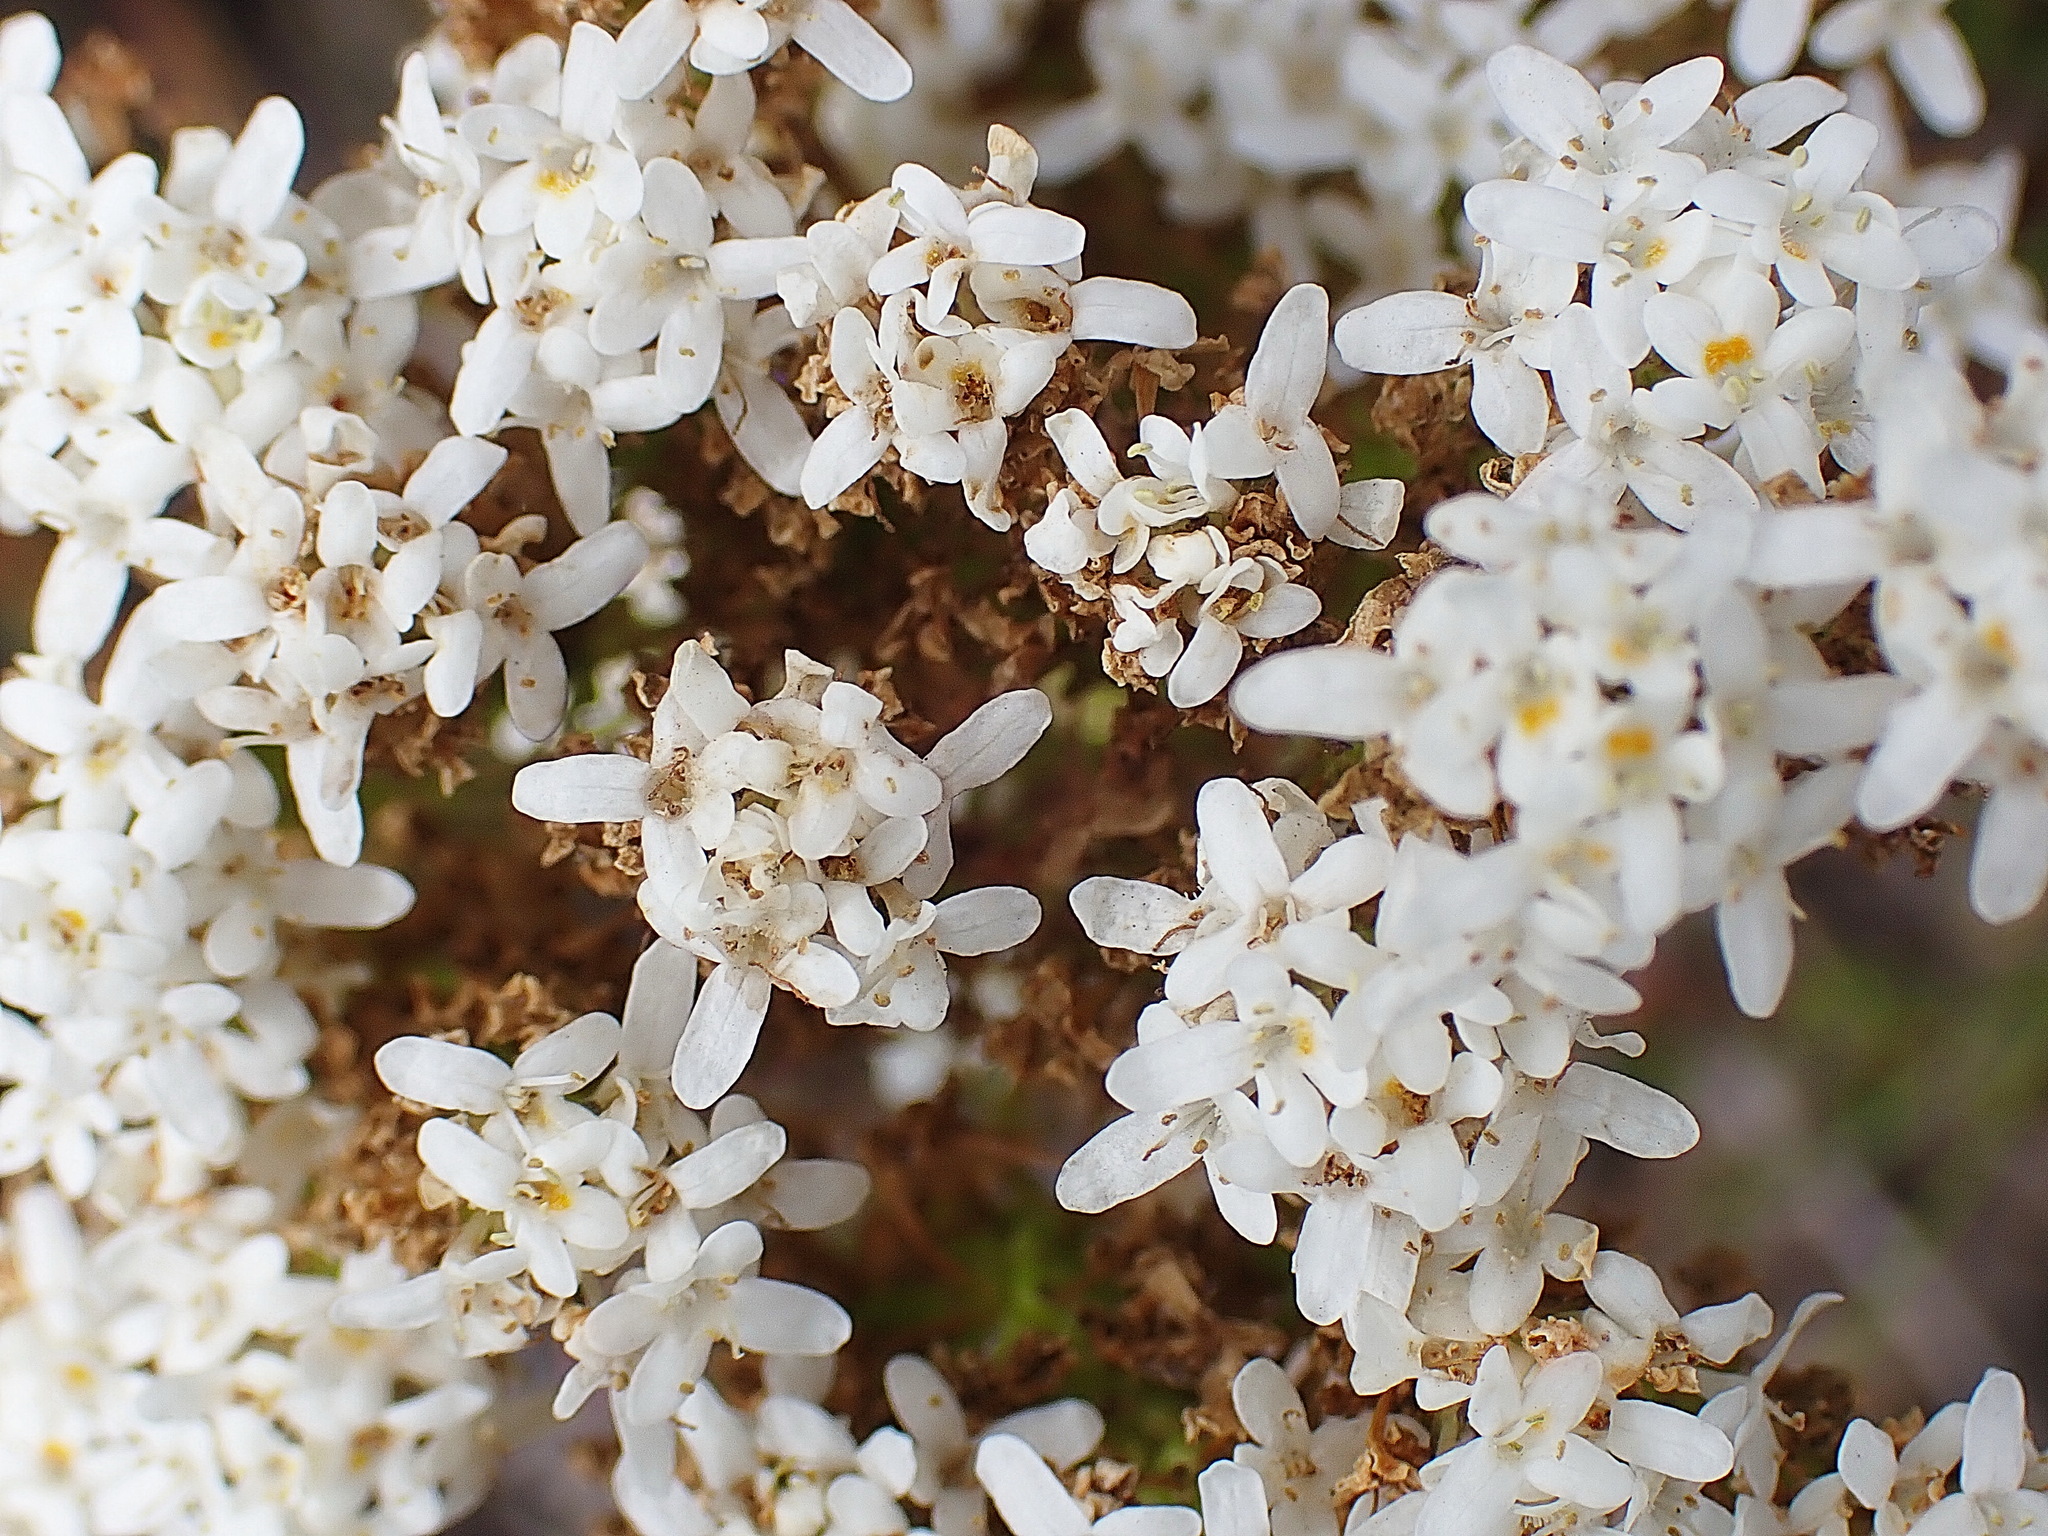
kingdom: Plantae
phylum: Tracheophyta
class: Magnoliopsida
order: Lamiales
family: Scrophulariaceae
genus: Pseudoselago
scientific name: Pseudoselago outeniquensis
